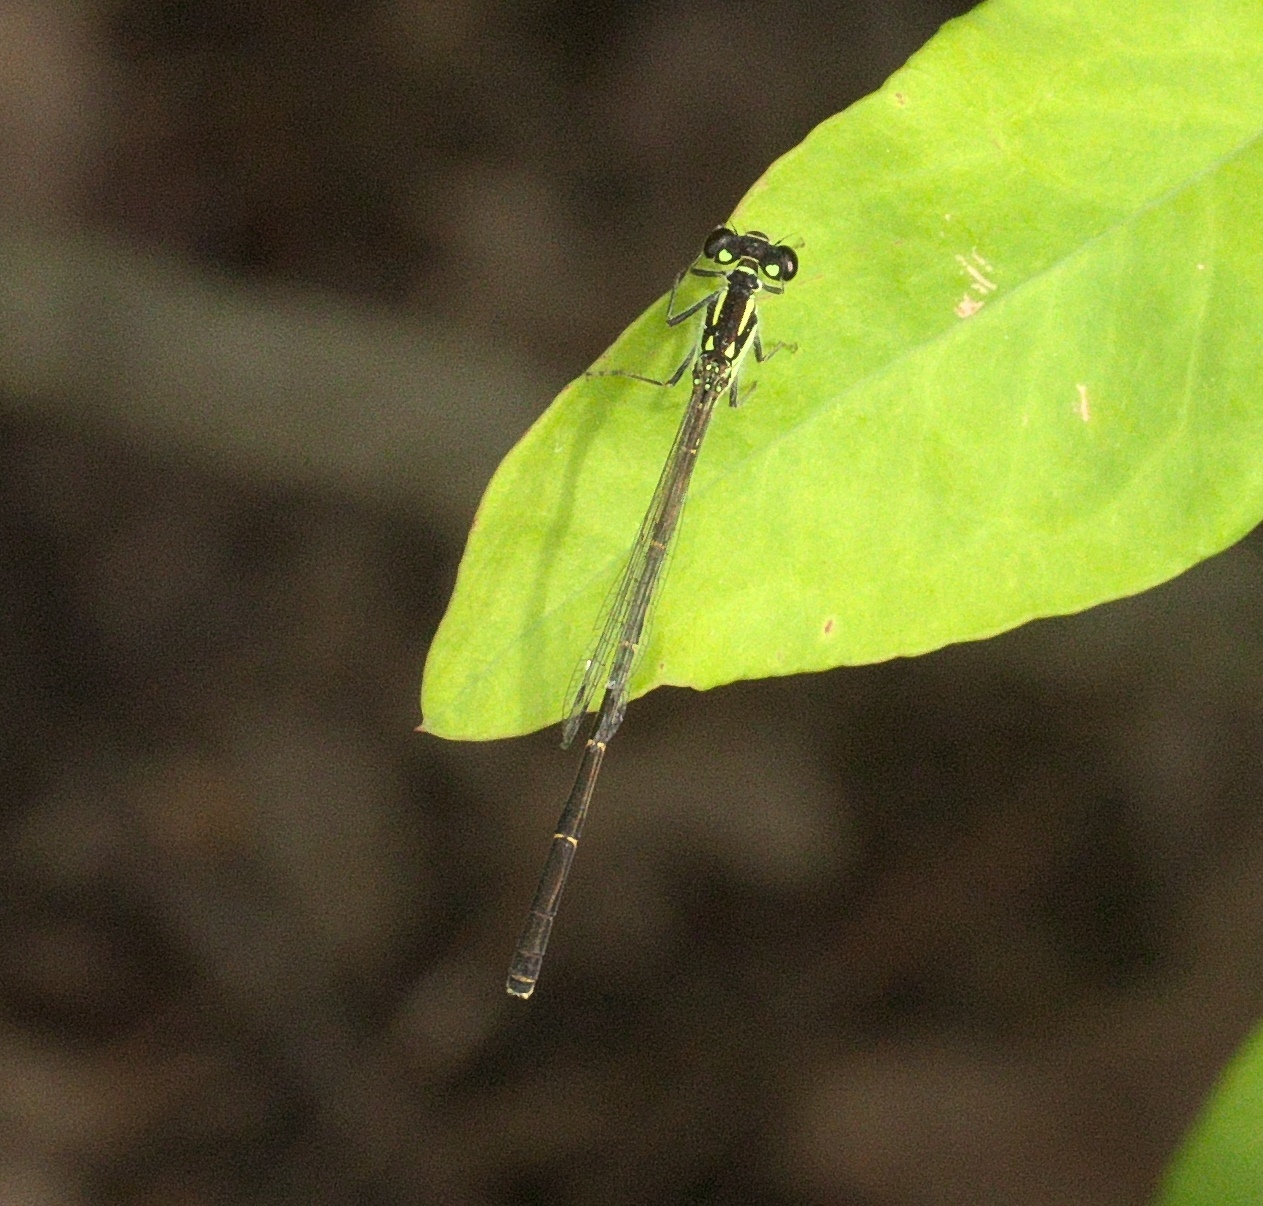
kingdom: Animalia
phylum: Arthropoda
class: Insecta
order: Odonata
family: Coenagrionidae
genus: Ischnura
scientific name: Ischnura posita
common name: Fragile forktail
